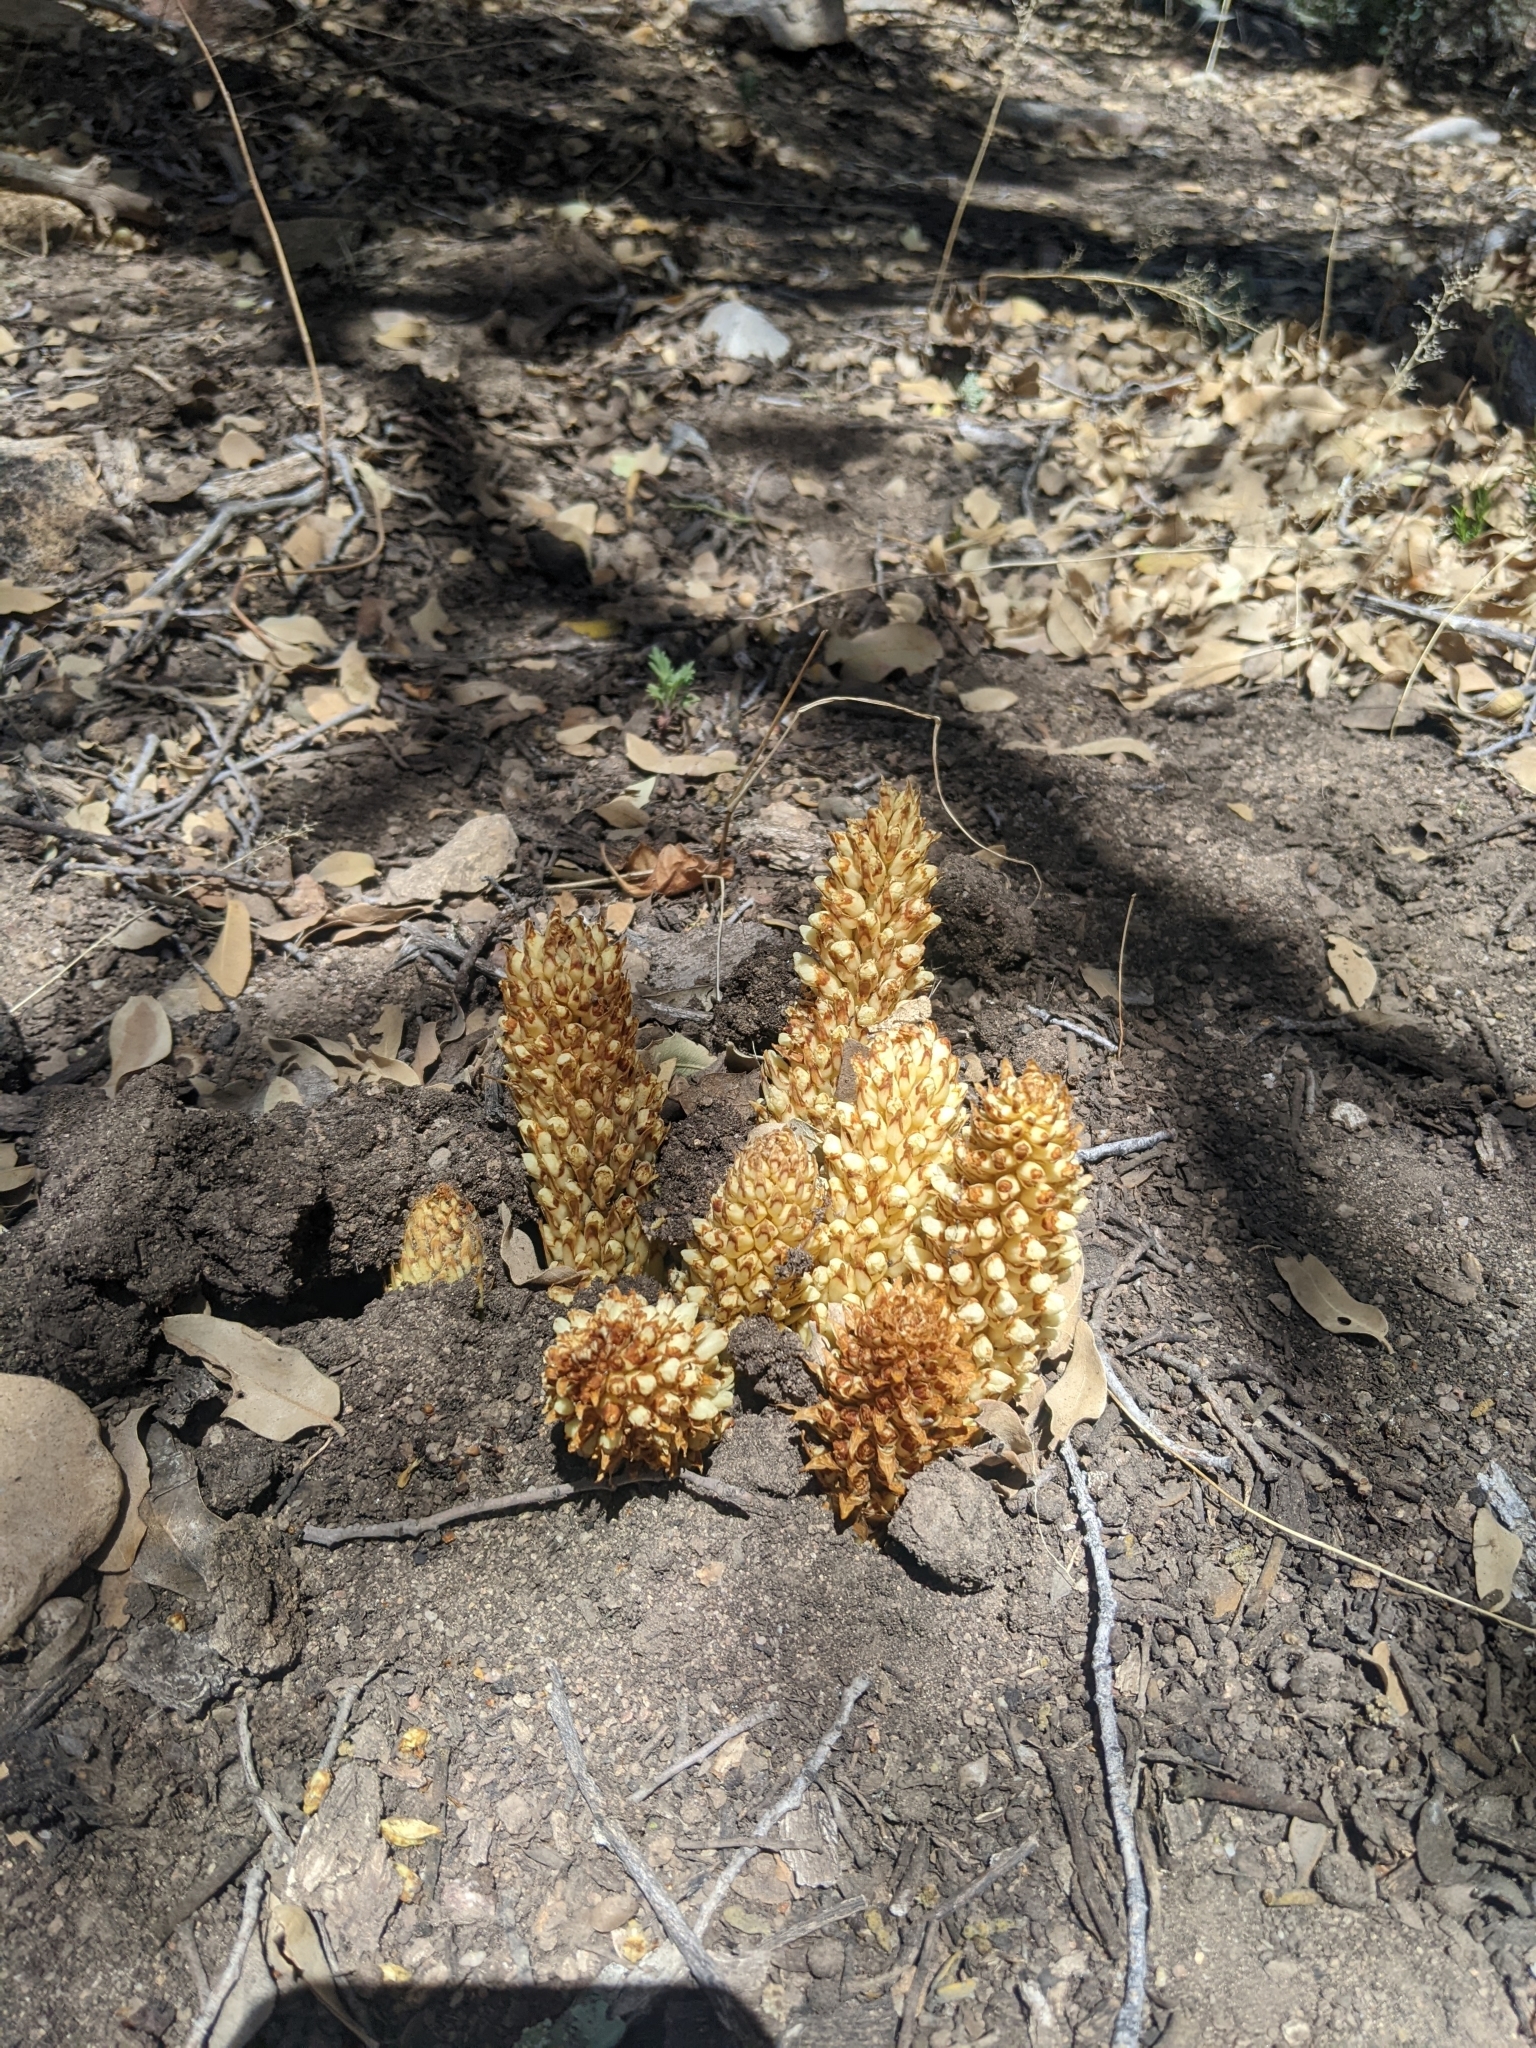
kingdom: Plantae
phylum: Tracheophyta
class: Magnoliopsida
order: Lamiales
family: Orobanchaceae
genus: Conopholis
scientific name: Conopholis alpina
